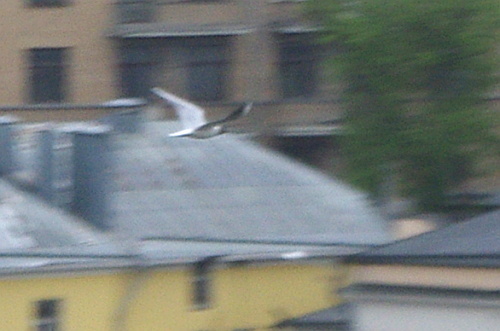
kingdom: Animalia
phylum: Chordata
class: Aves
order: Charadriiformes
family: Laridae
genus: Chroicocephalus
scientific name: Chroicocephalus ridibundus
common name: Black-headed gull
